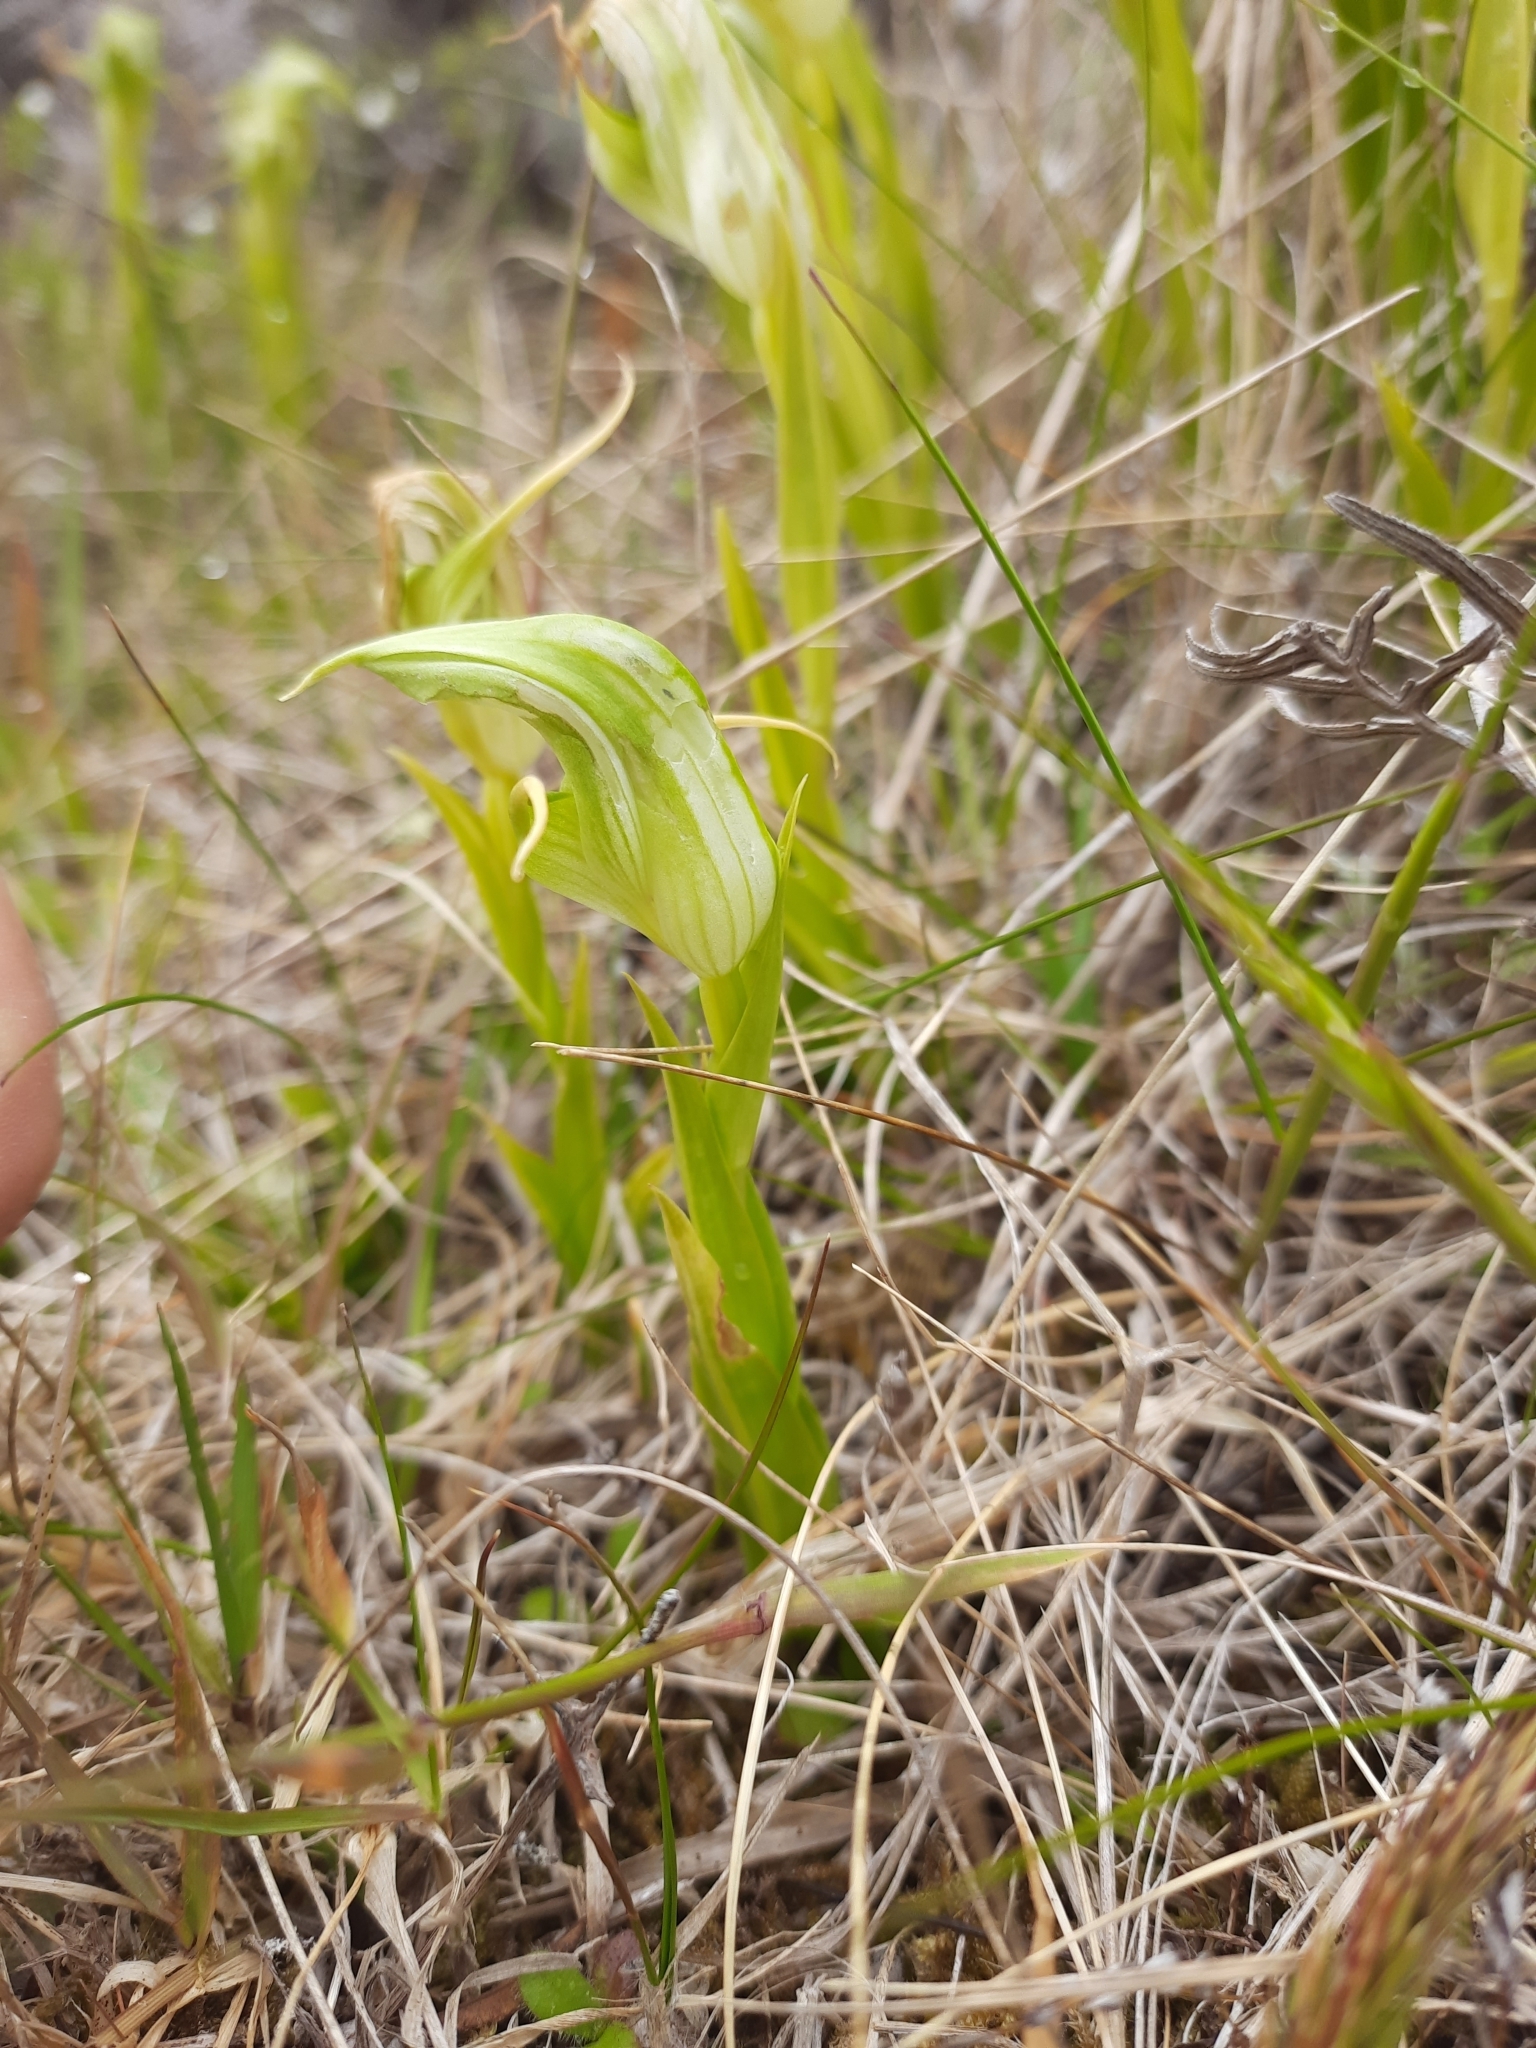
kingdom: Plantae
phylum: Tracheophyta
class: Liliopsida
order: Asparagales
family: Orchidaceae
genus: Pterostylis
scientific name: Pterostylis australis
